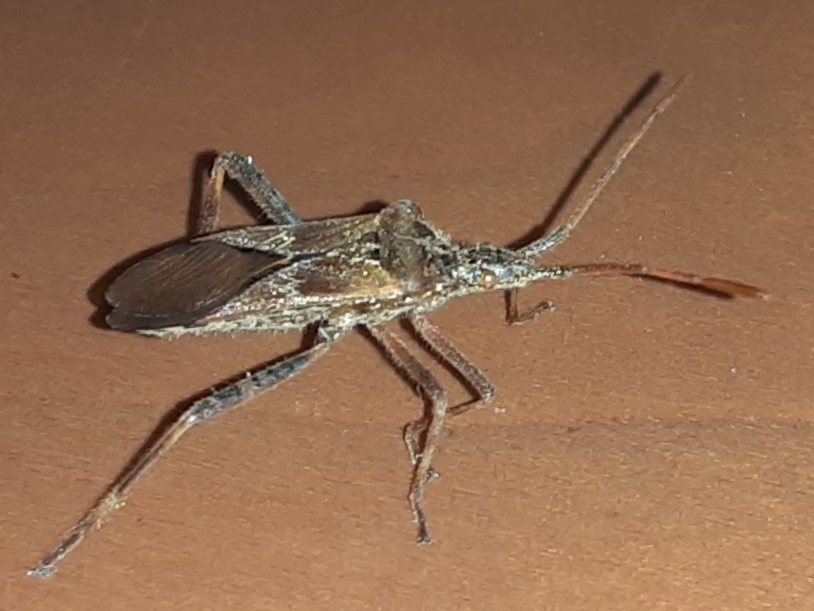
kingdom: Animalia
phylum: Arthropoda
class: Insecta
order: Hemiptera
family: Coreidae
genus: Leptoglossus
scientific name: Leptoglossus occidentalis
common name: Western conifer-seed bug
